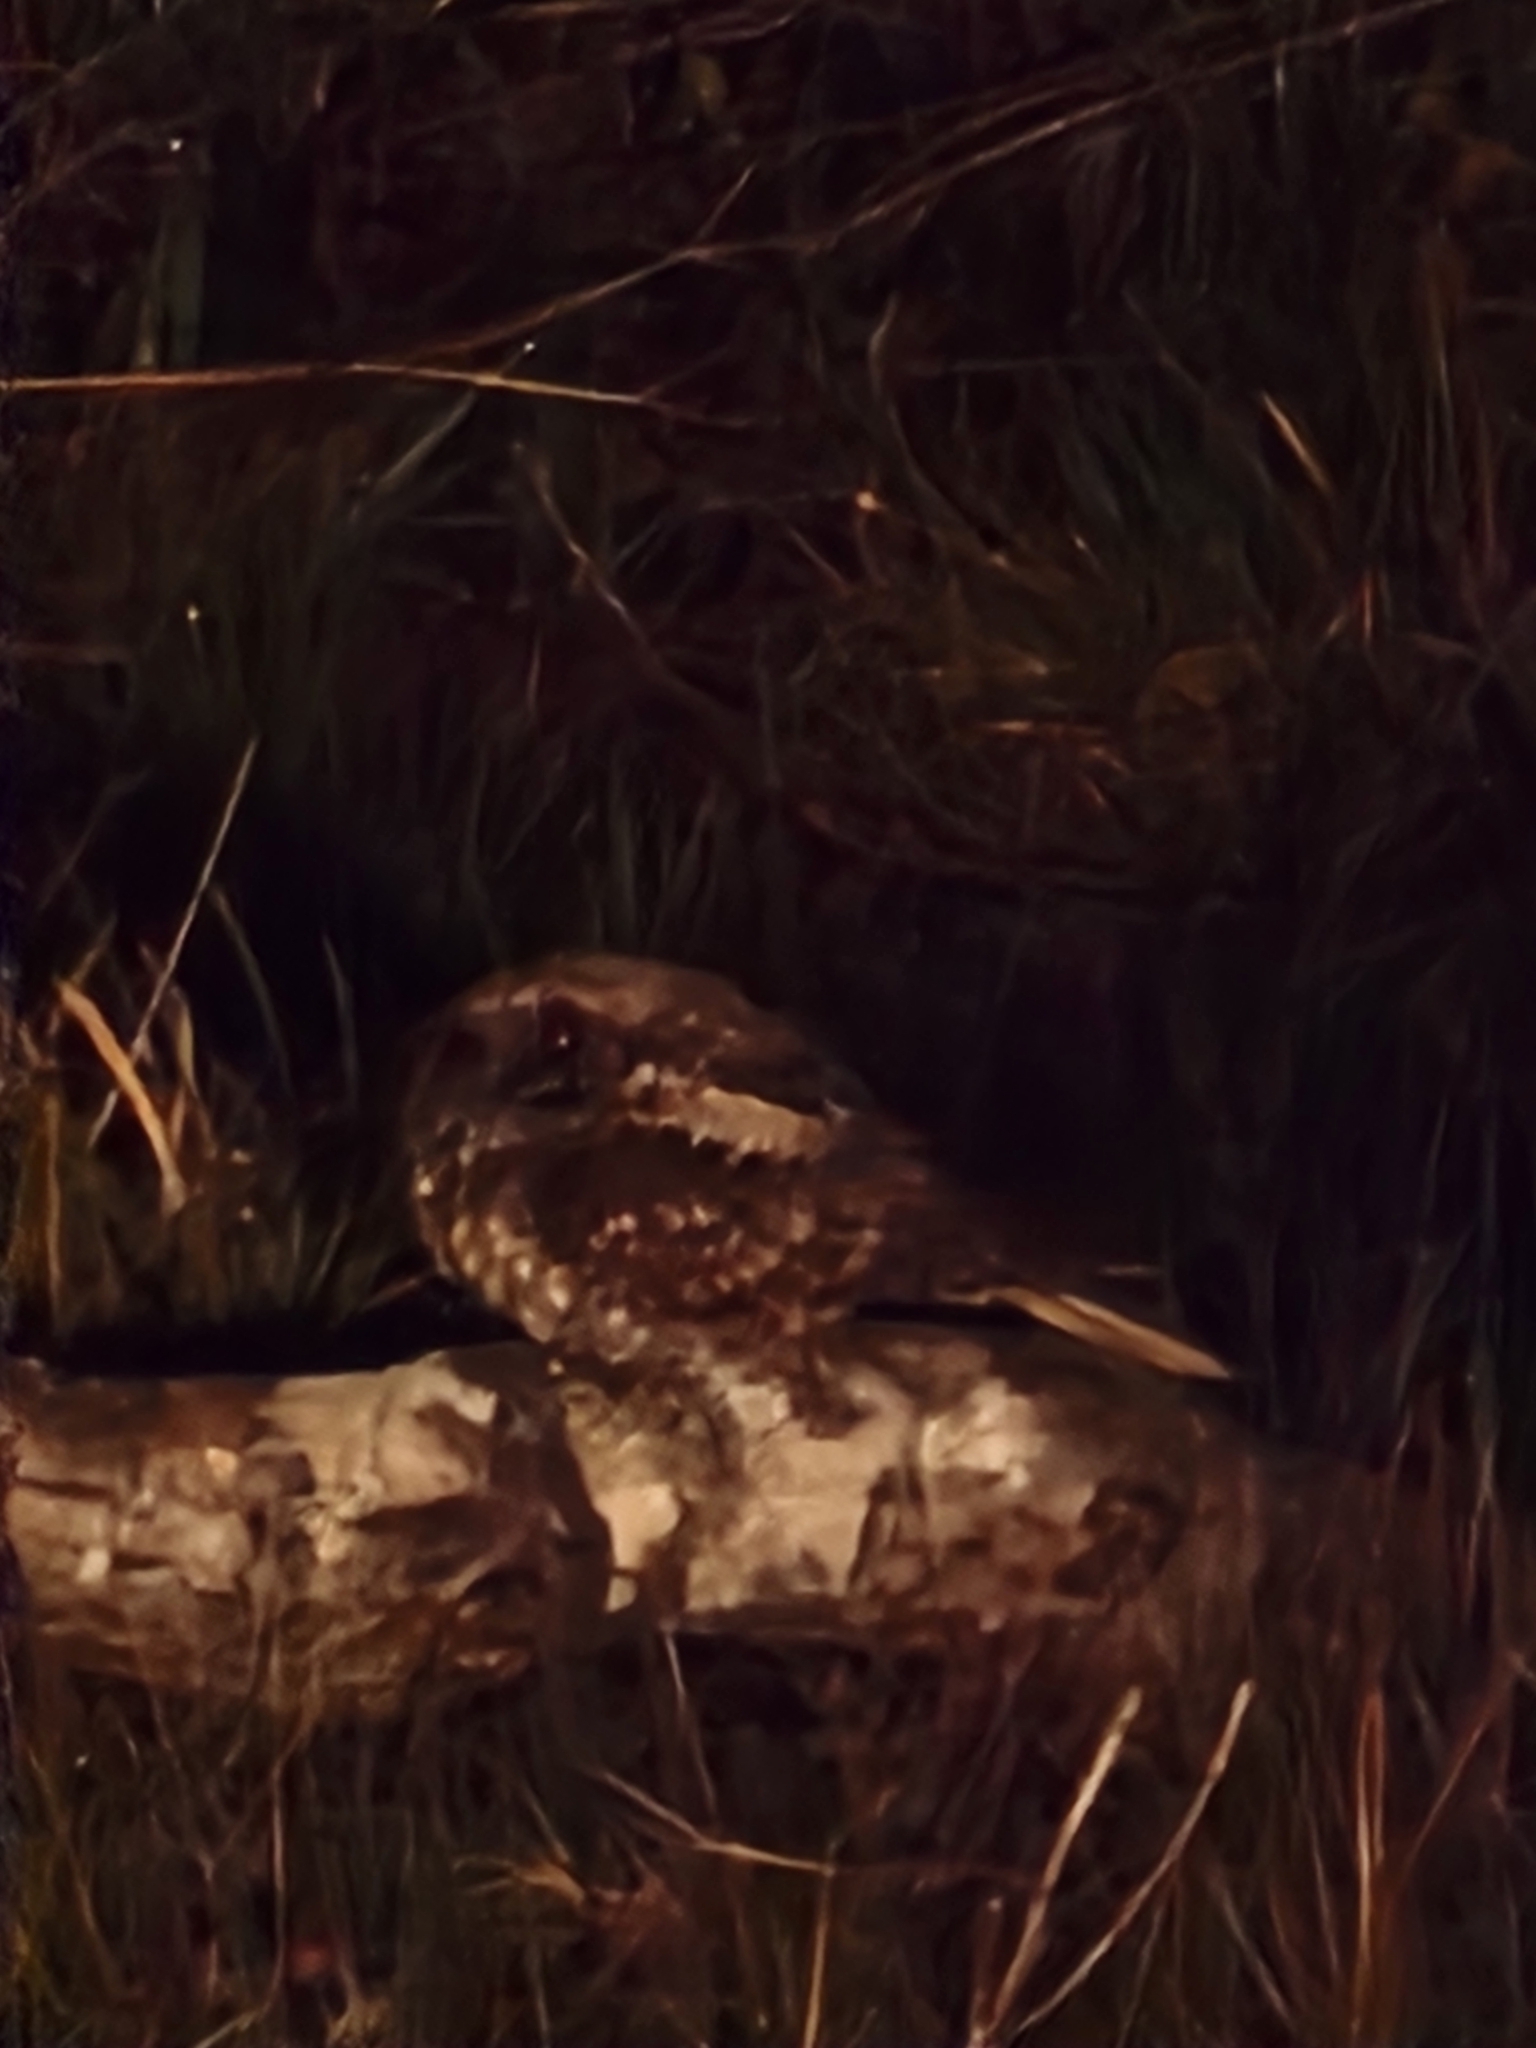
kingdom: Animalia
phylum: Chordata
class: Aves
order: Caprimulgiformes
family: Caprimulgidae
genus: Antrostomus
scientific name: Antrostomus vociferus
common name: Eastern whip-poor-will
